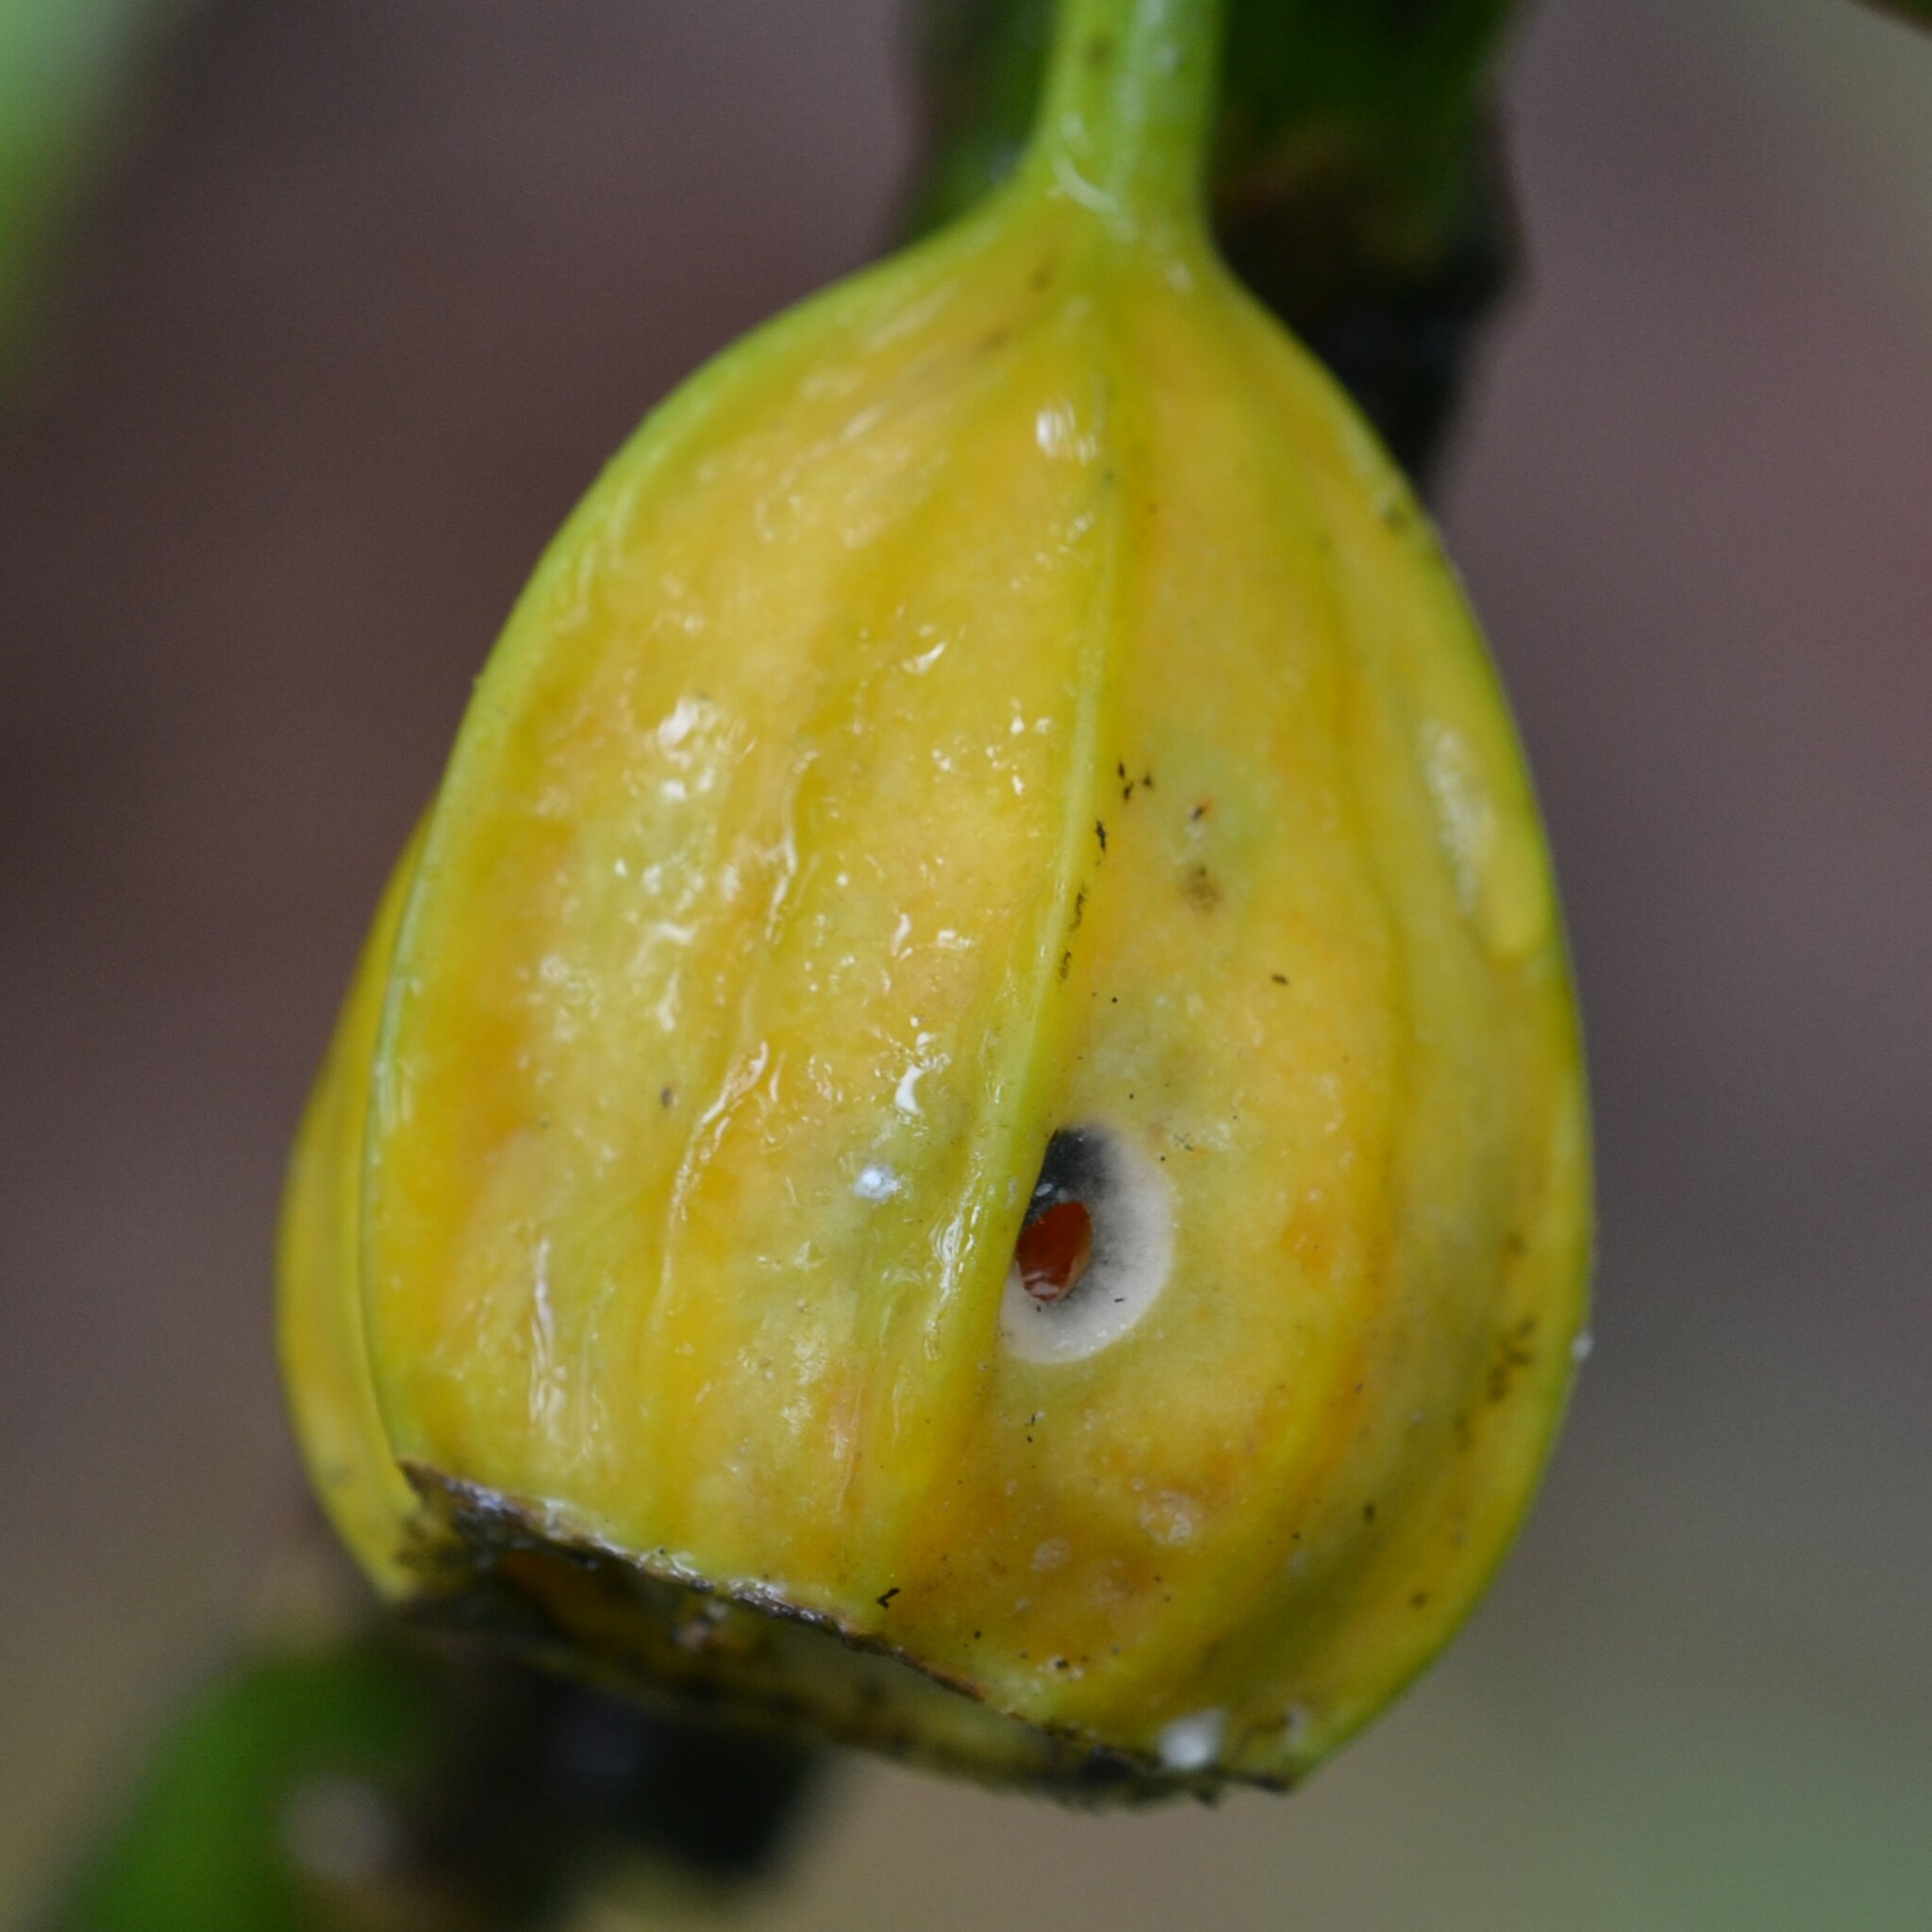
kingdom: Plantae
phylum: Tracheophyta
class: Magnoliopsida
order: Asterales
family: Campanulaceae
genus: Clermontia
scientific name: Clermontia hawaiiensis
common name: Hawaii clermontia
